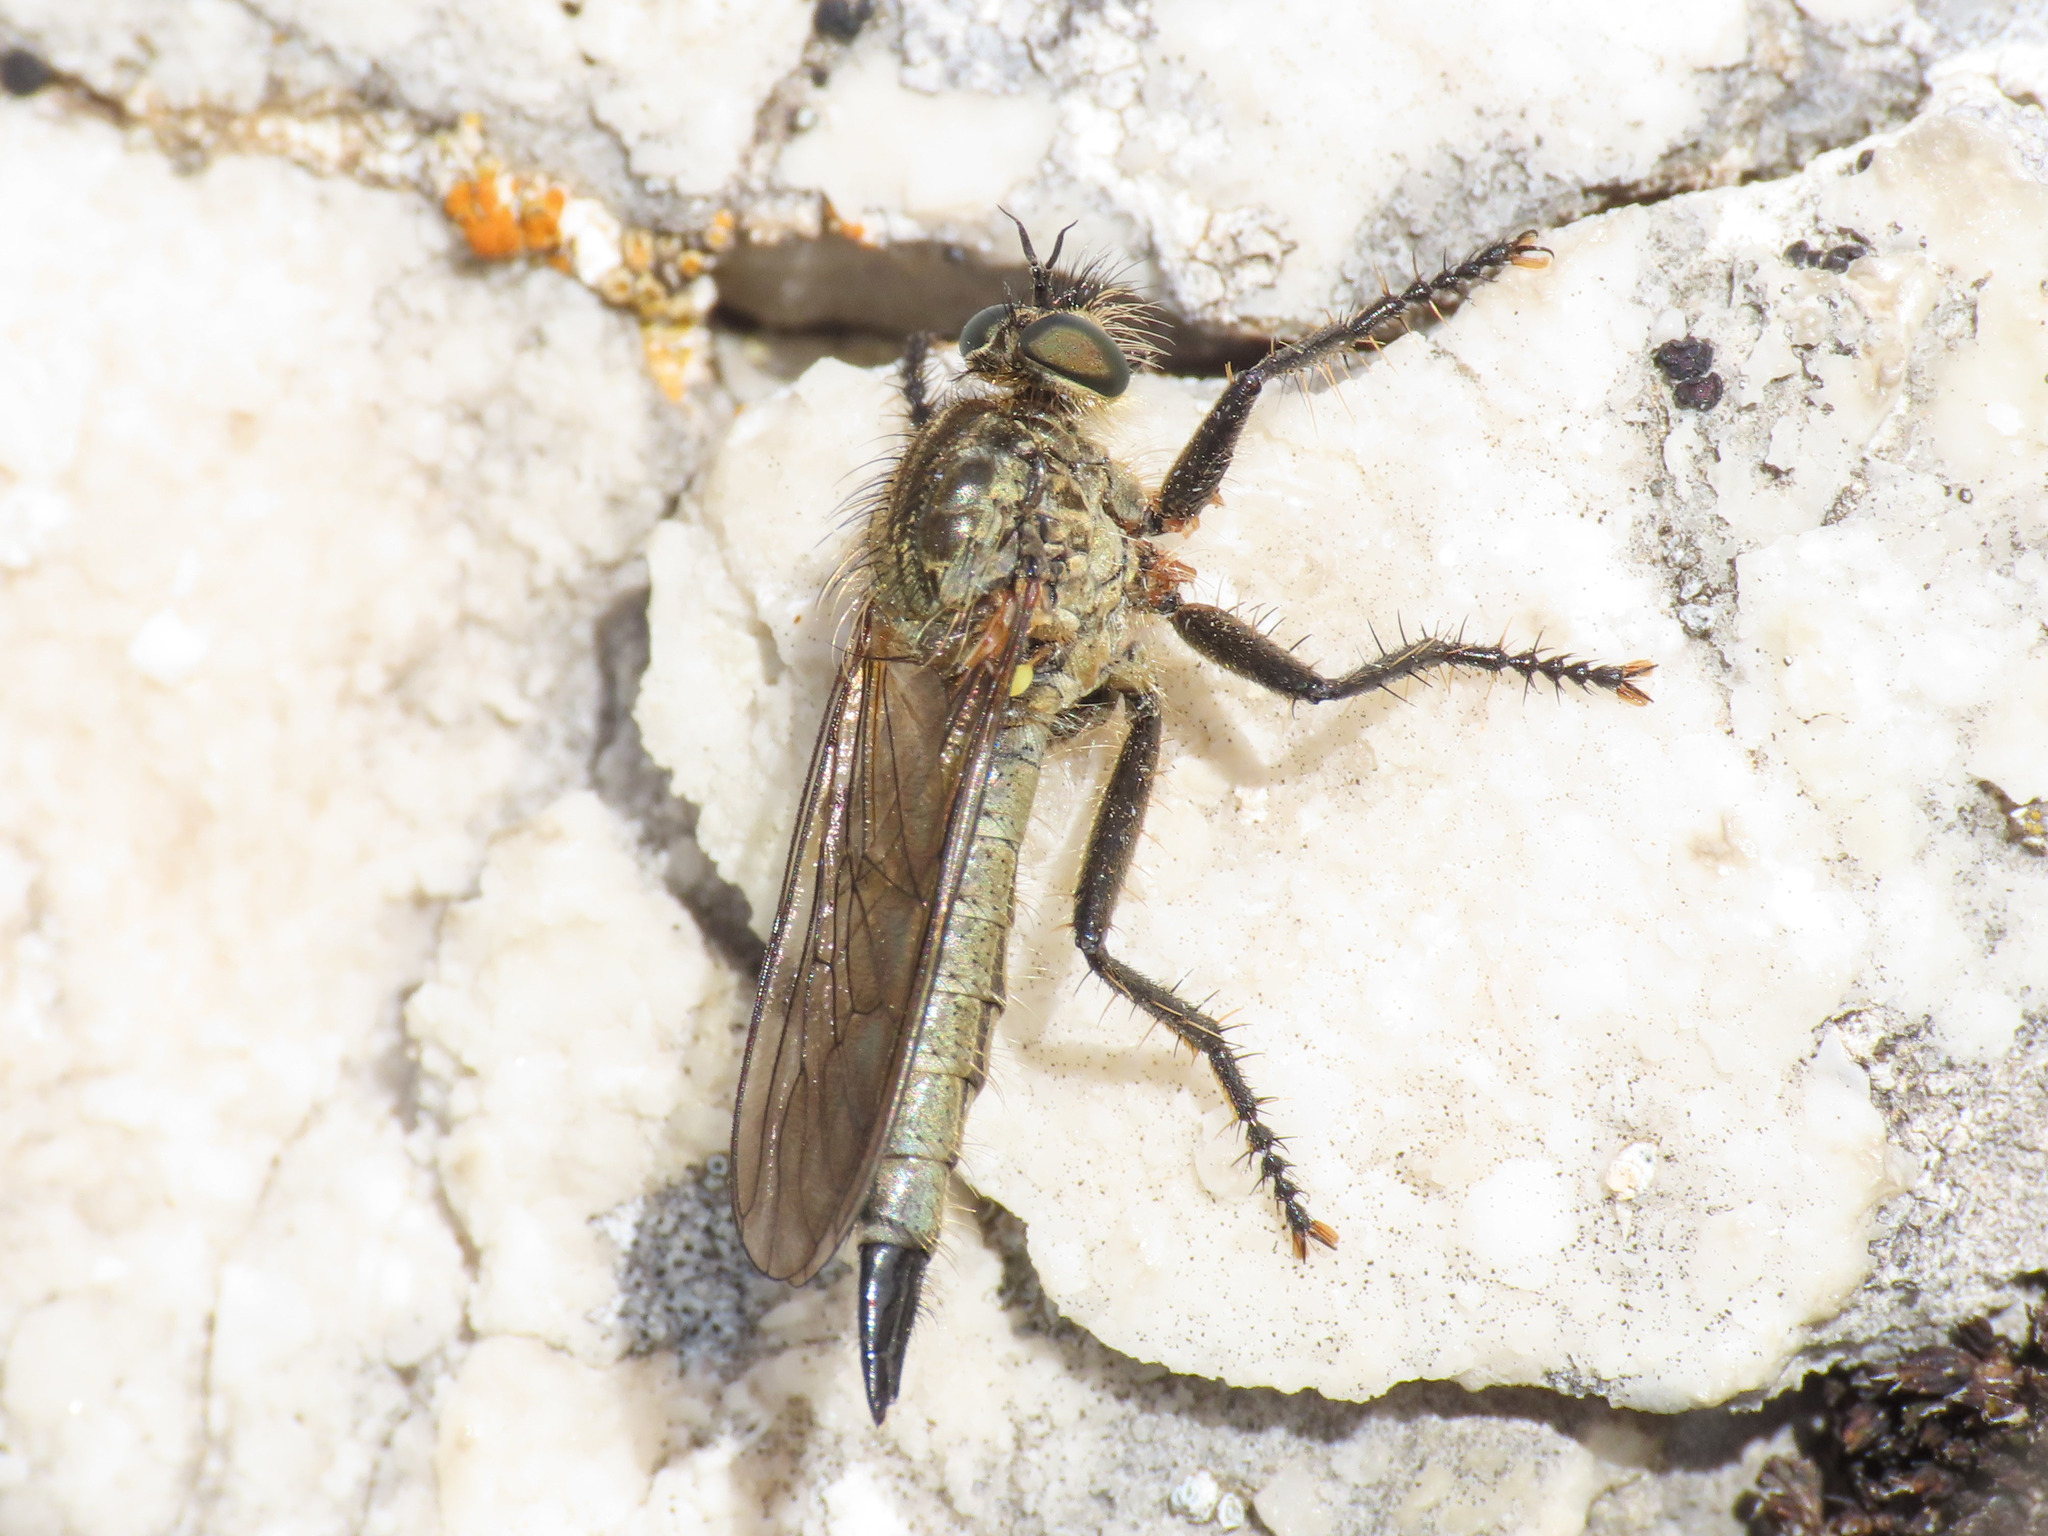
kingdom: Animalia
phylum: Arthropoda
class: Insecta
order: Diptera
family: Asilidae
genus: Didysmachus
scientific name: Didysmachus picipes
